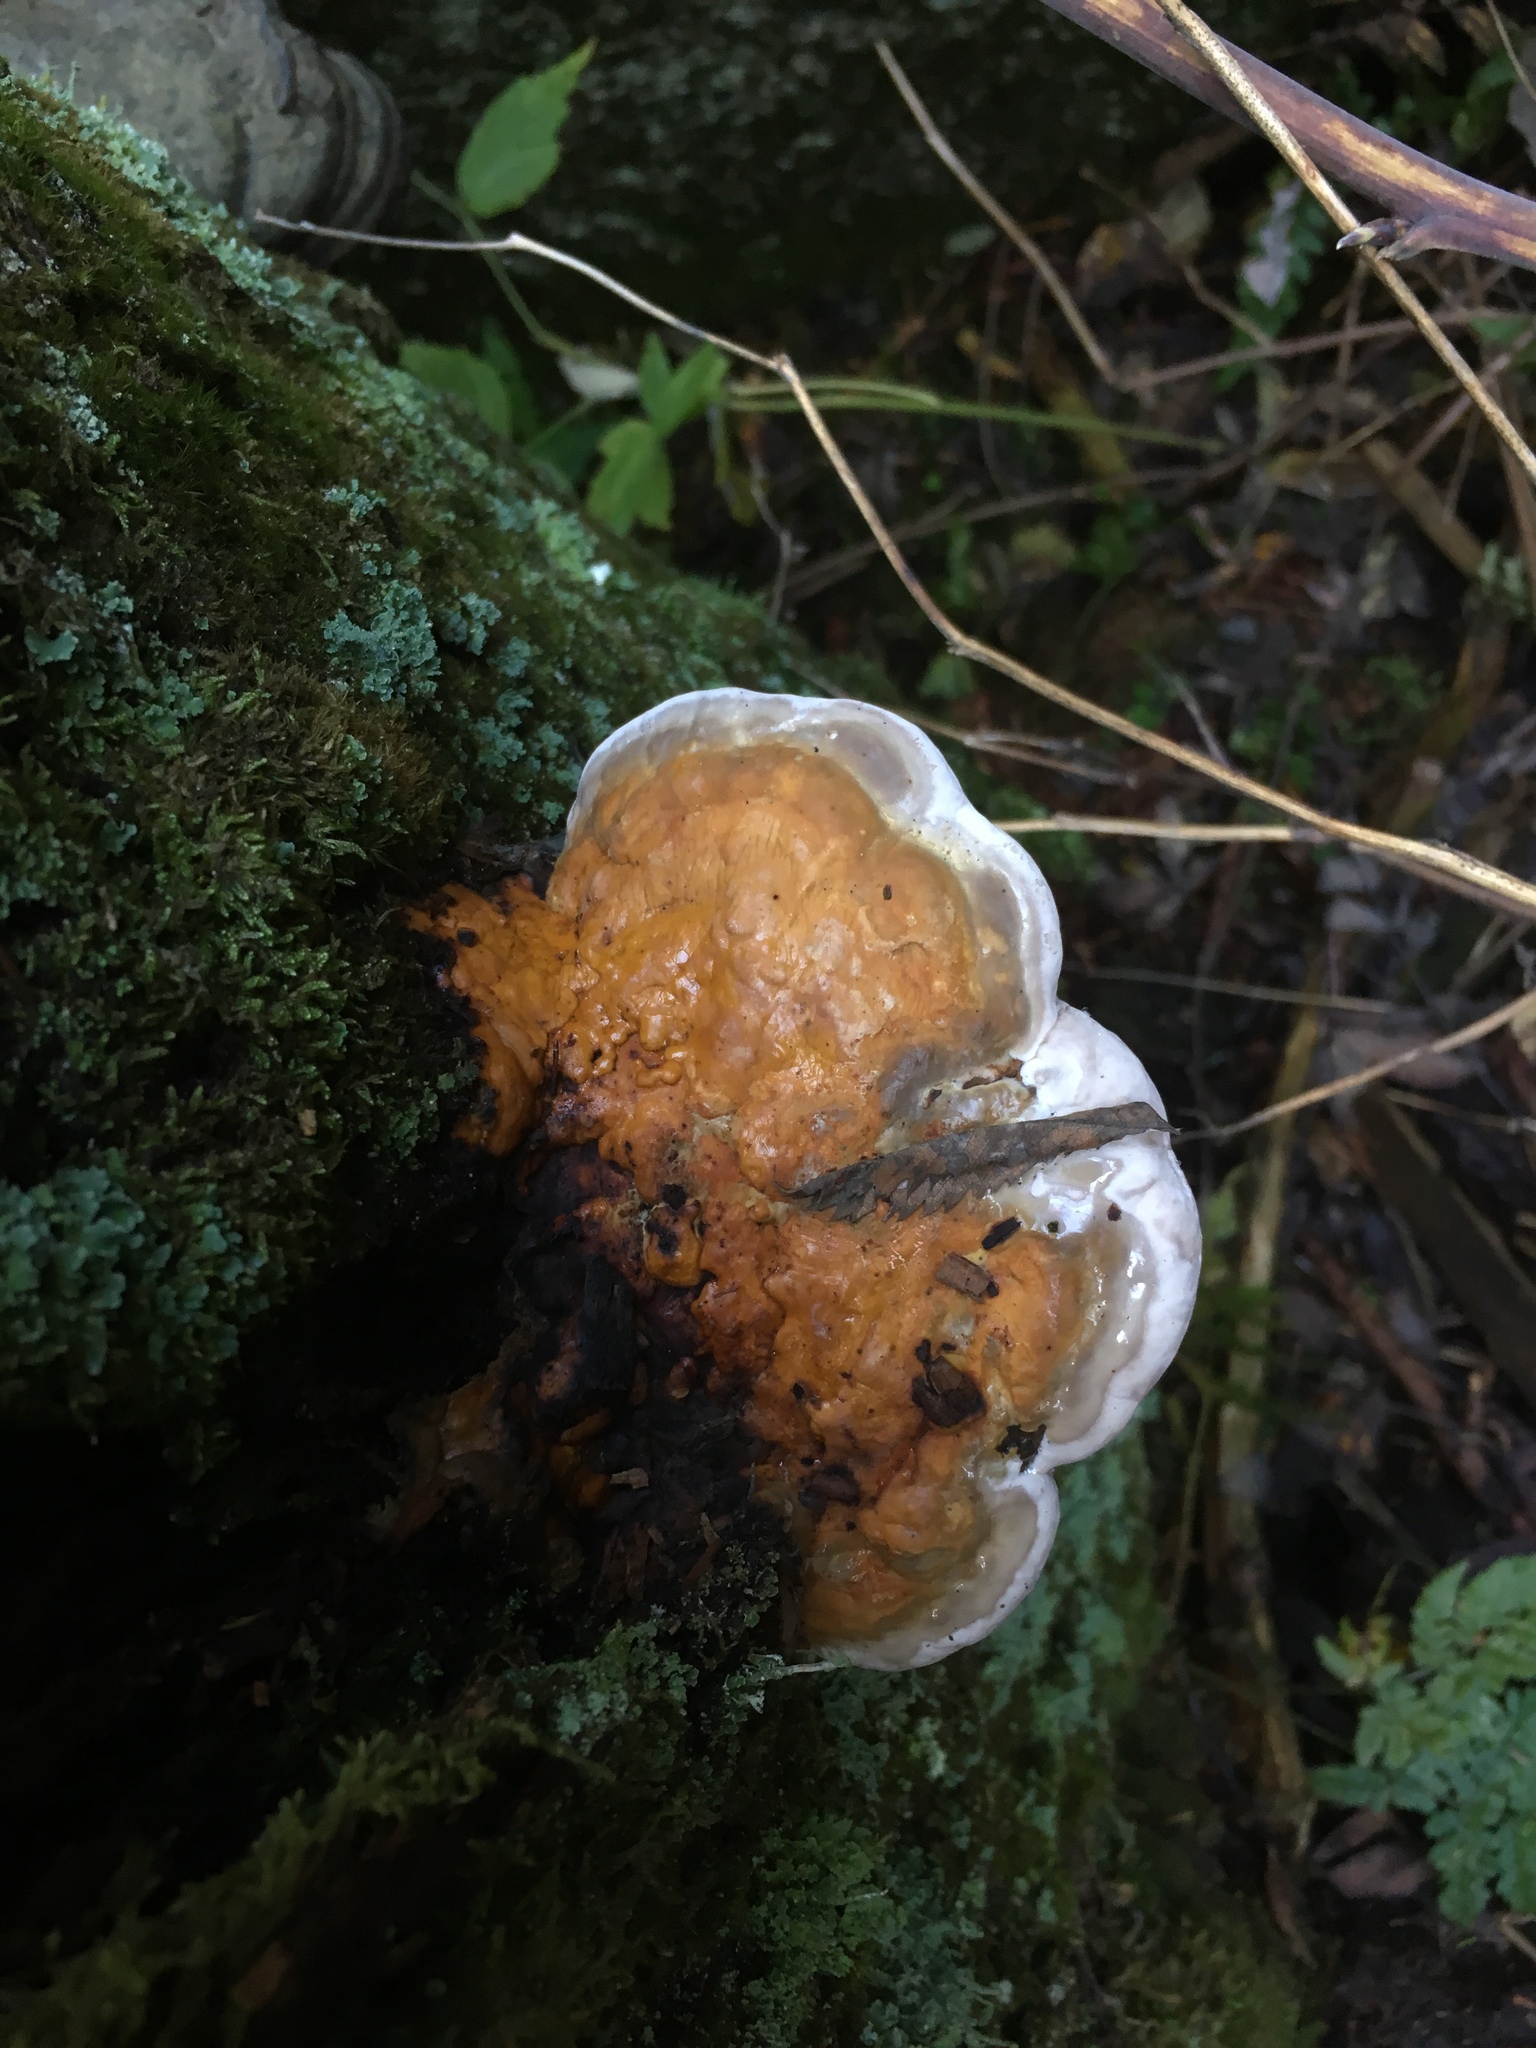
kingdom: Fungi
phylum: Basidiomycota
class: Agaricomycetes
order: Polyporales
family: Fomitopsidaceae
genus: Fomitopsis
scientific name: Fomitopsis pinicola
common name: Red-belted bracket
